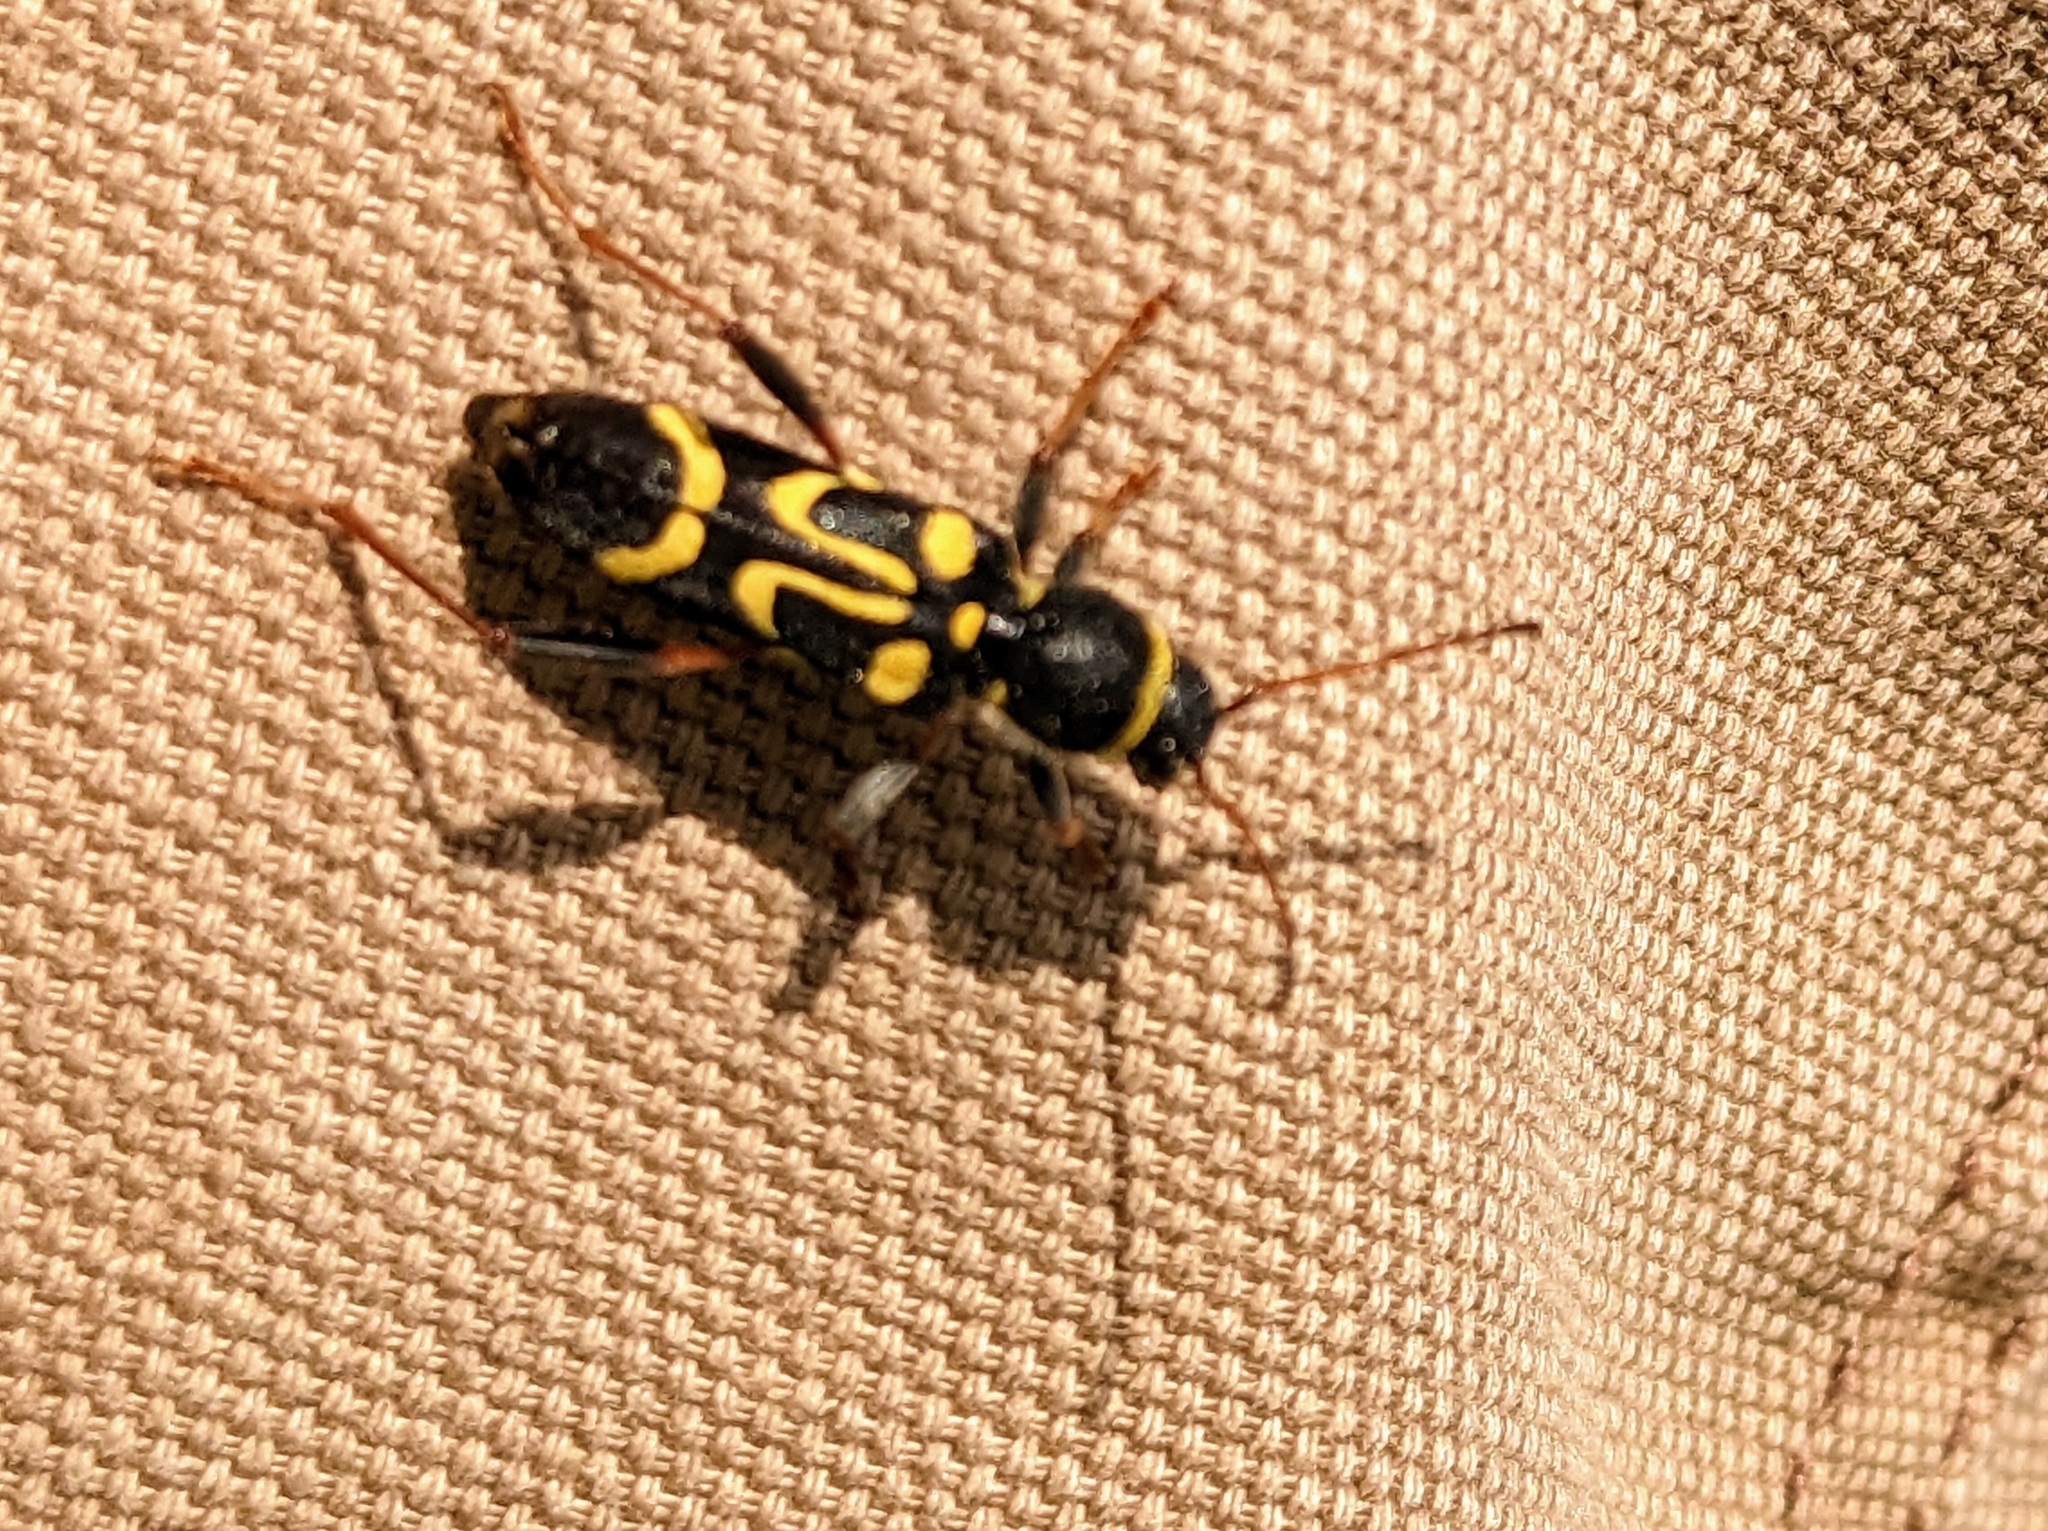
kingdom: Animalia
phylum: Arthropoda
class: Insecta
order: Coleoptera
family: Cerambycidae
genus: Clytus
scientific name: Clytus ruricola
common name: Round-necked longhorn beetle
